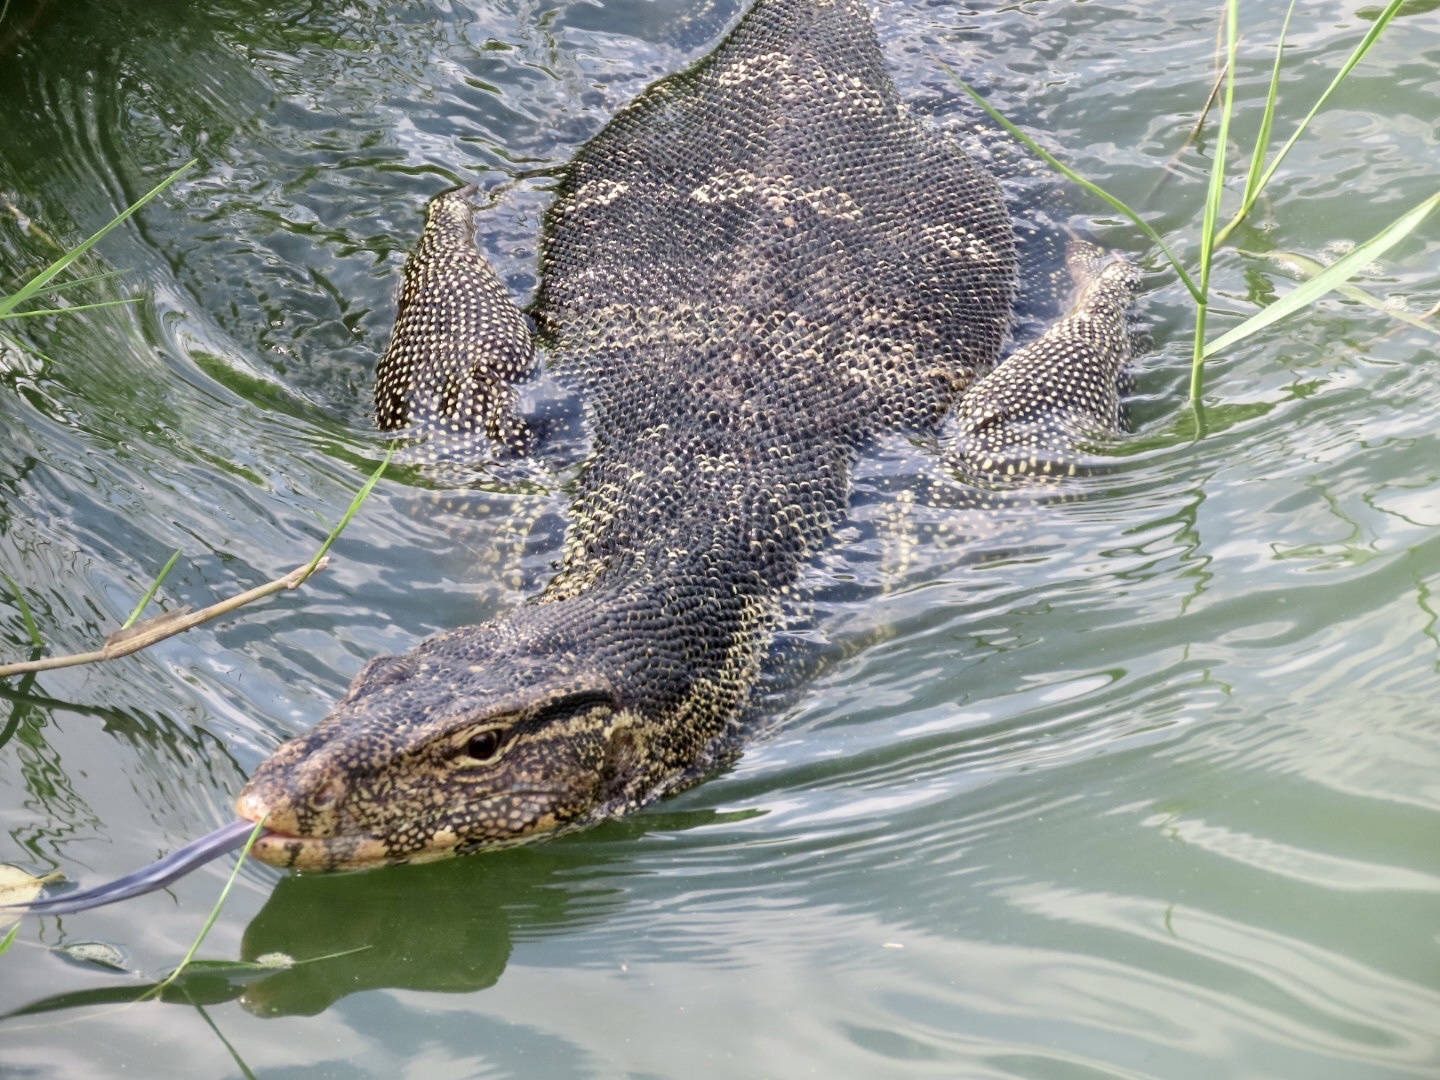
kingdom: Animalia
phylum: Chordata
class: Squamata
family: Varanidae
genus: Varanus
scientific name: Varanus salvator
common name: Common water monitor
